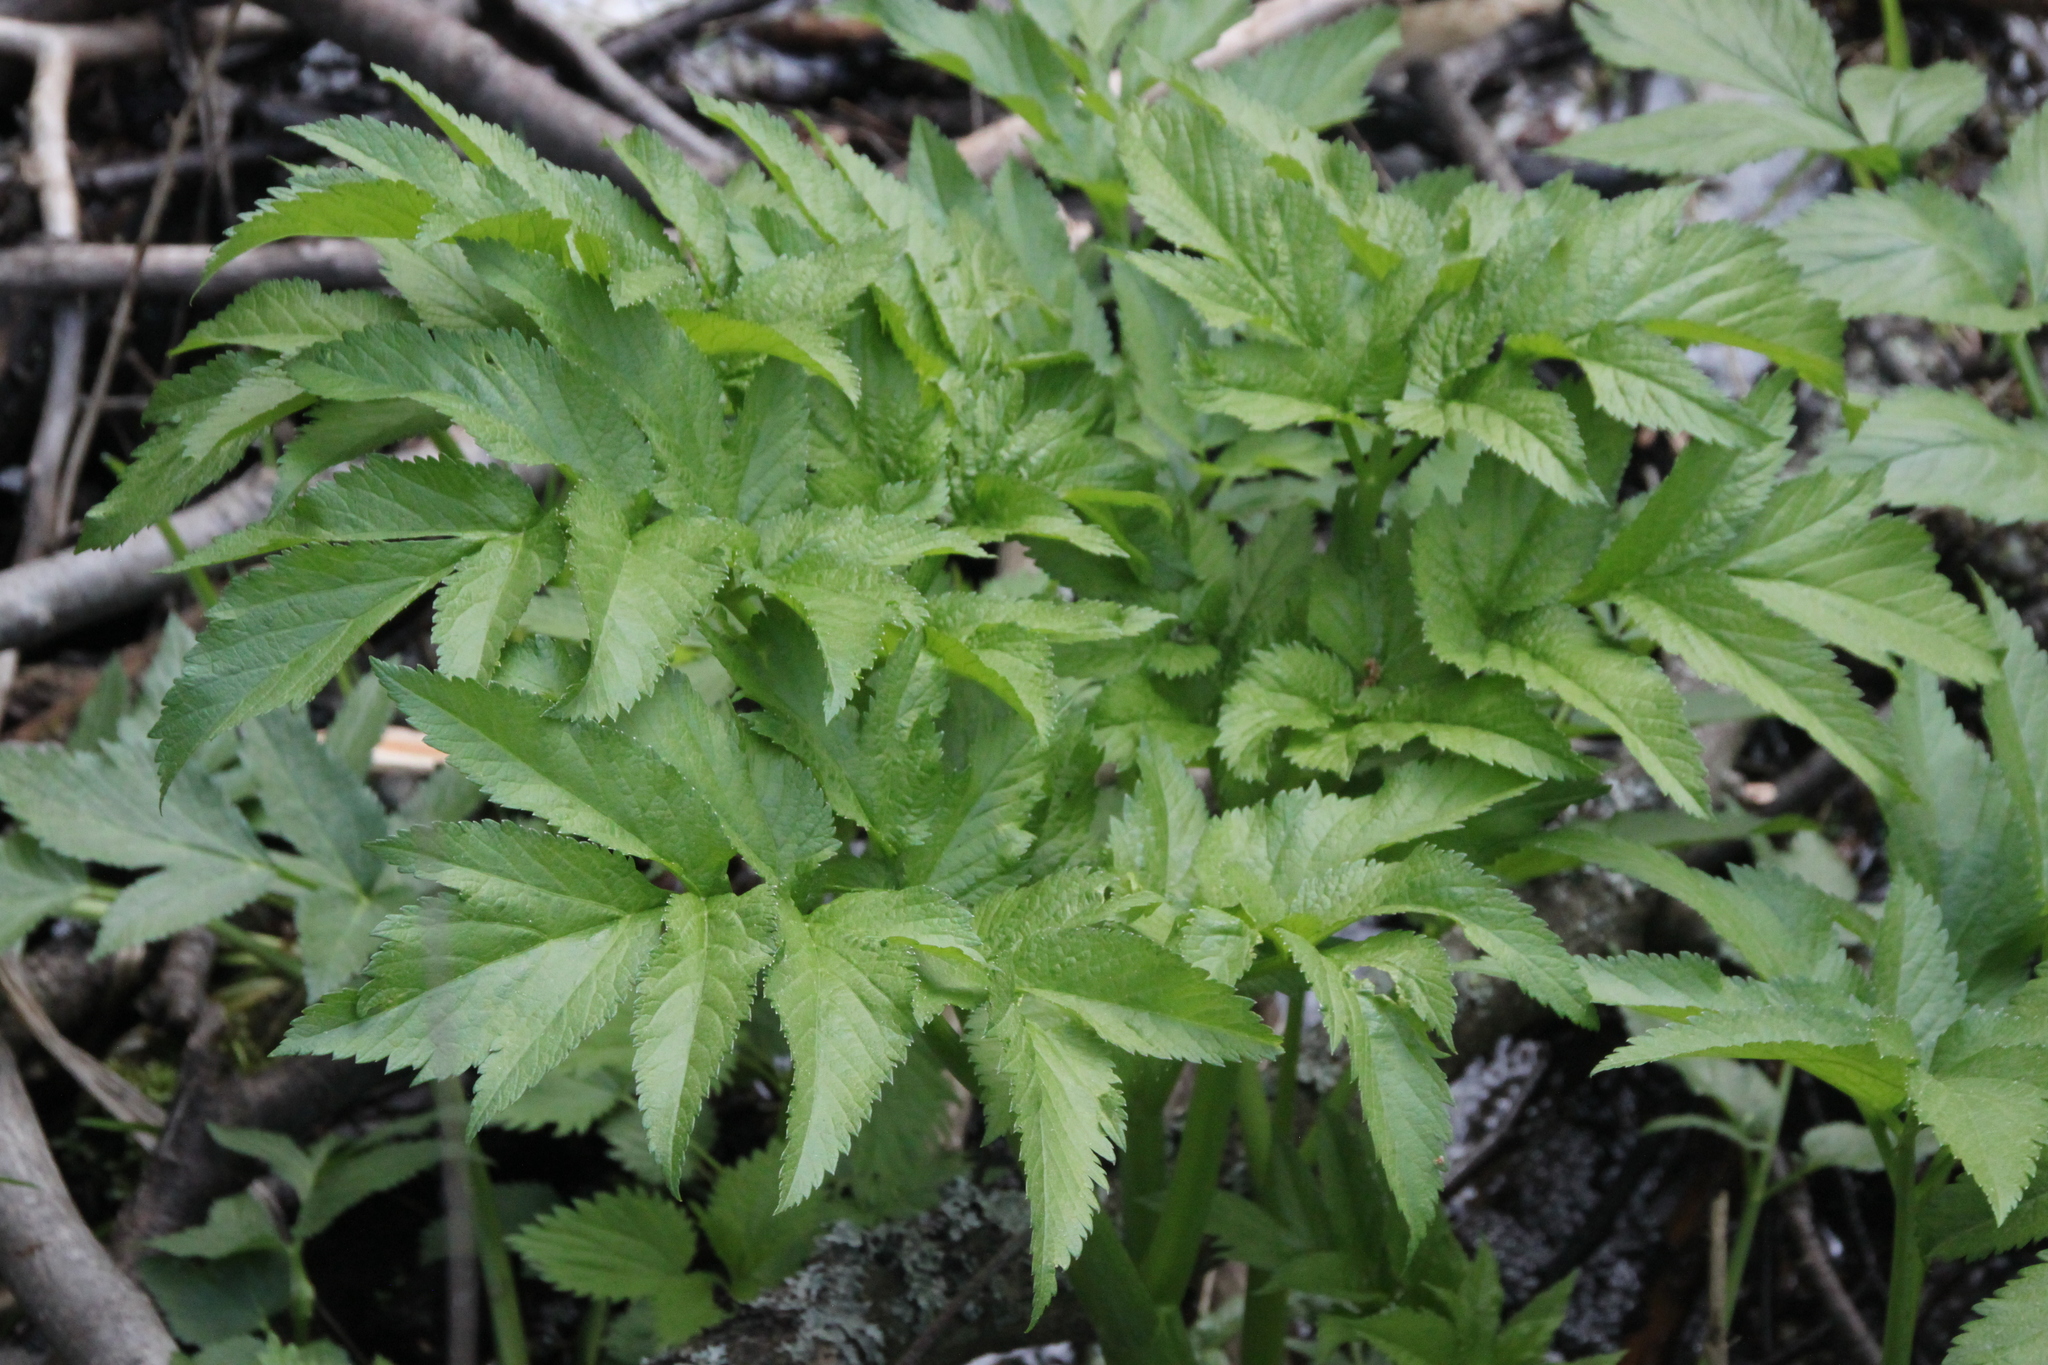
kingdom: Plantae
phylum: Tracheophyta
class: Magnoliopsida
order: Apiales
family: Apiaceae
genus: Angelica
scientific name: Angelica archangelica
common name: Garden angelica
